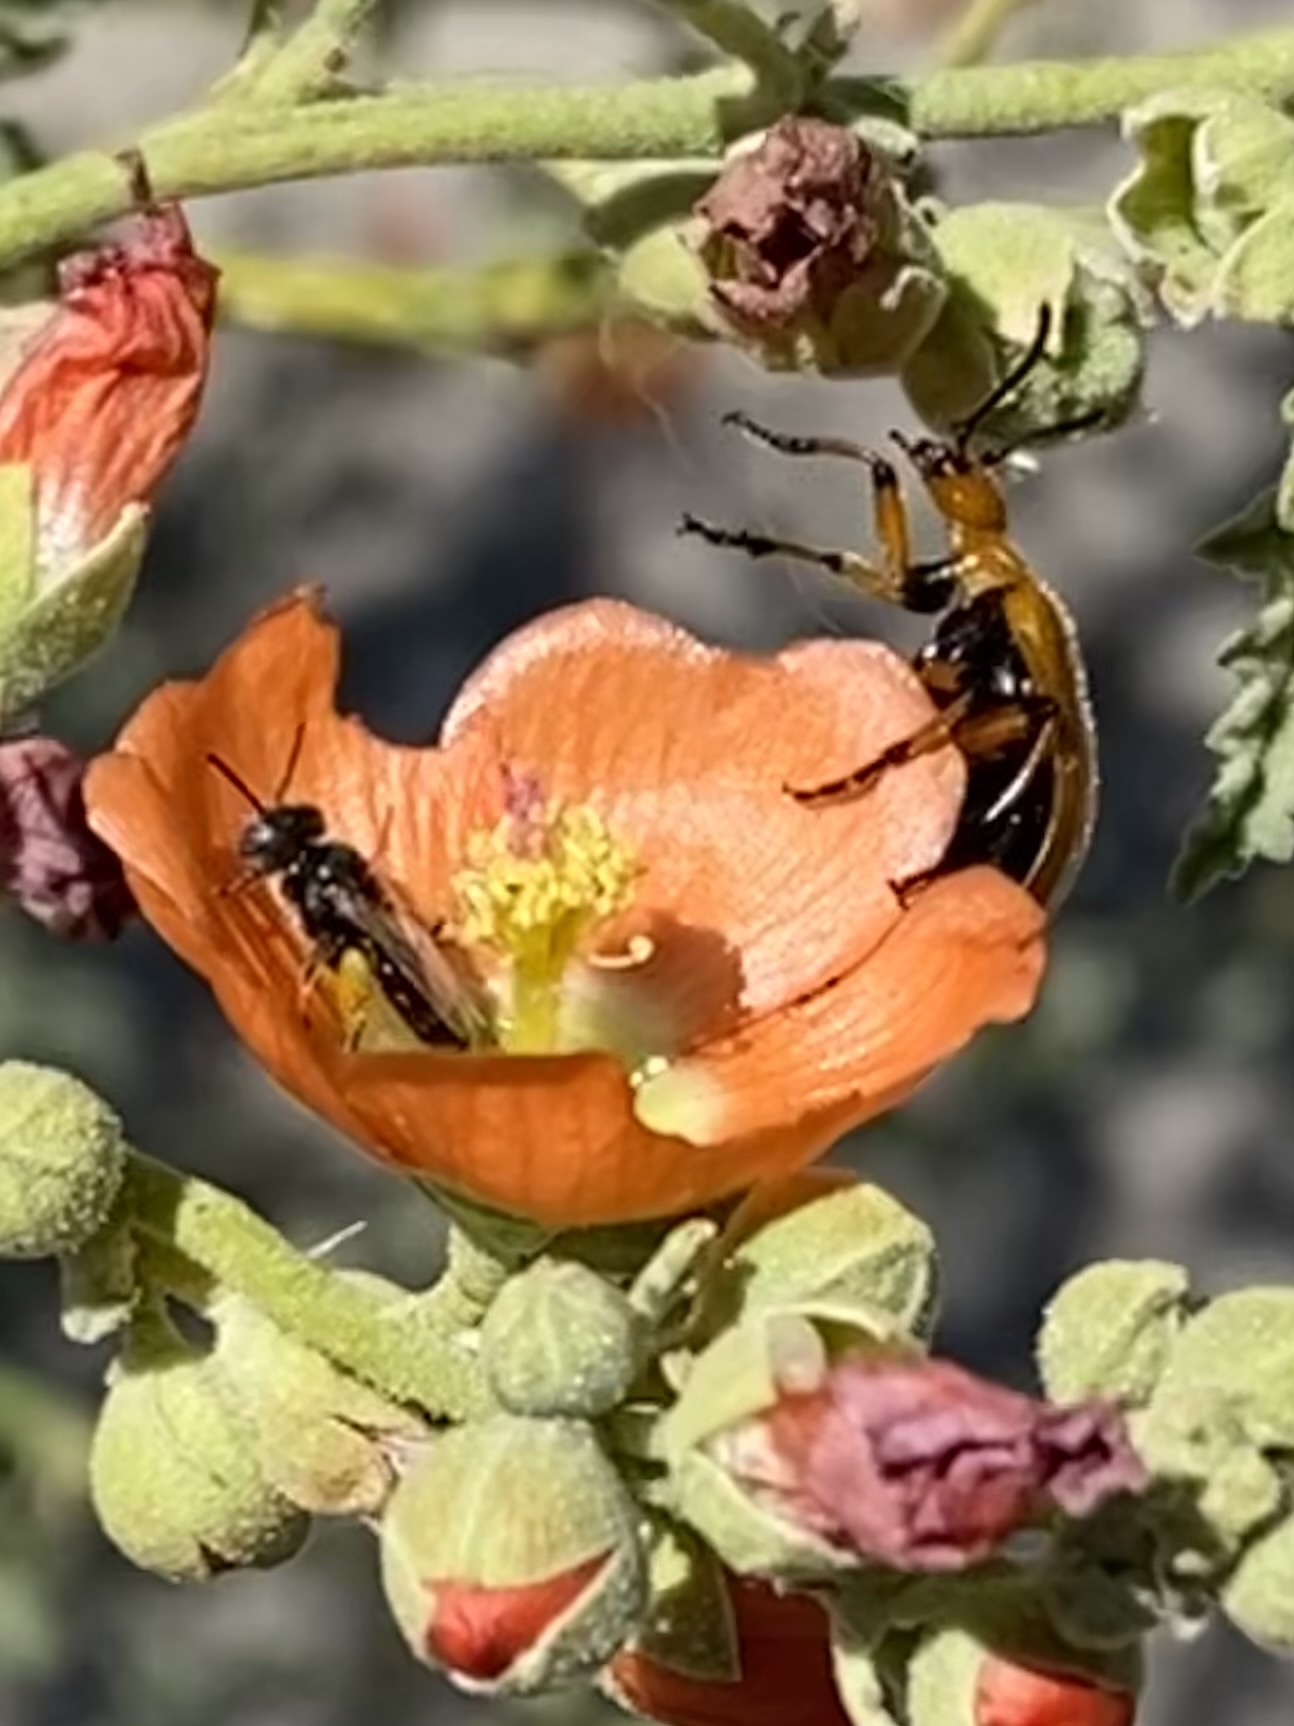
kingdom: Animalia
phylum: Arthropoda
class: Insecta
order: Hymenoptera
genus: Macroteropsis
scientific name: Macroteropsis
